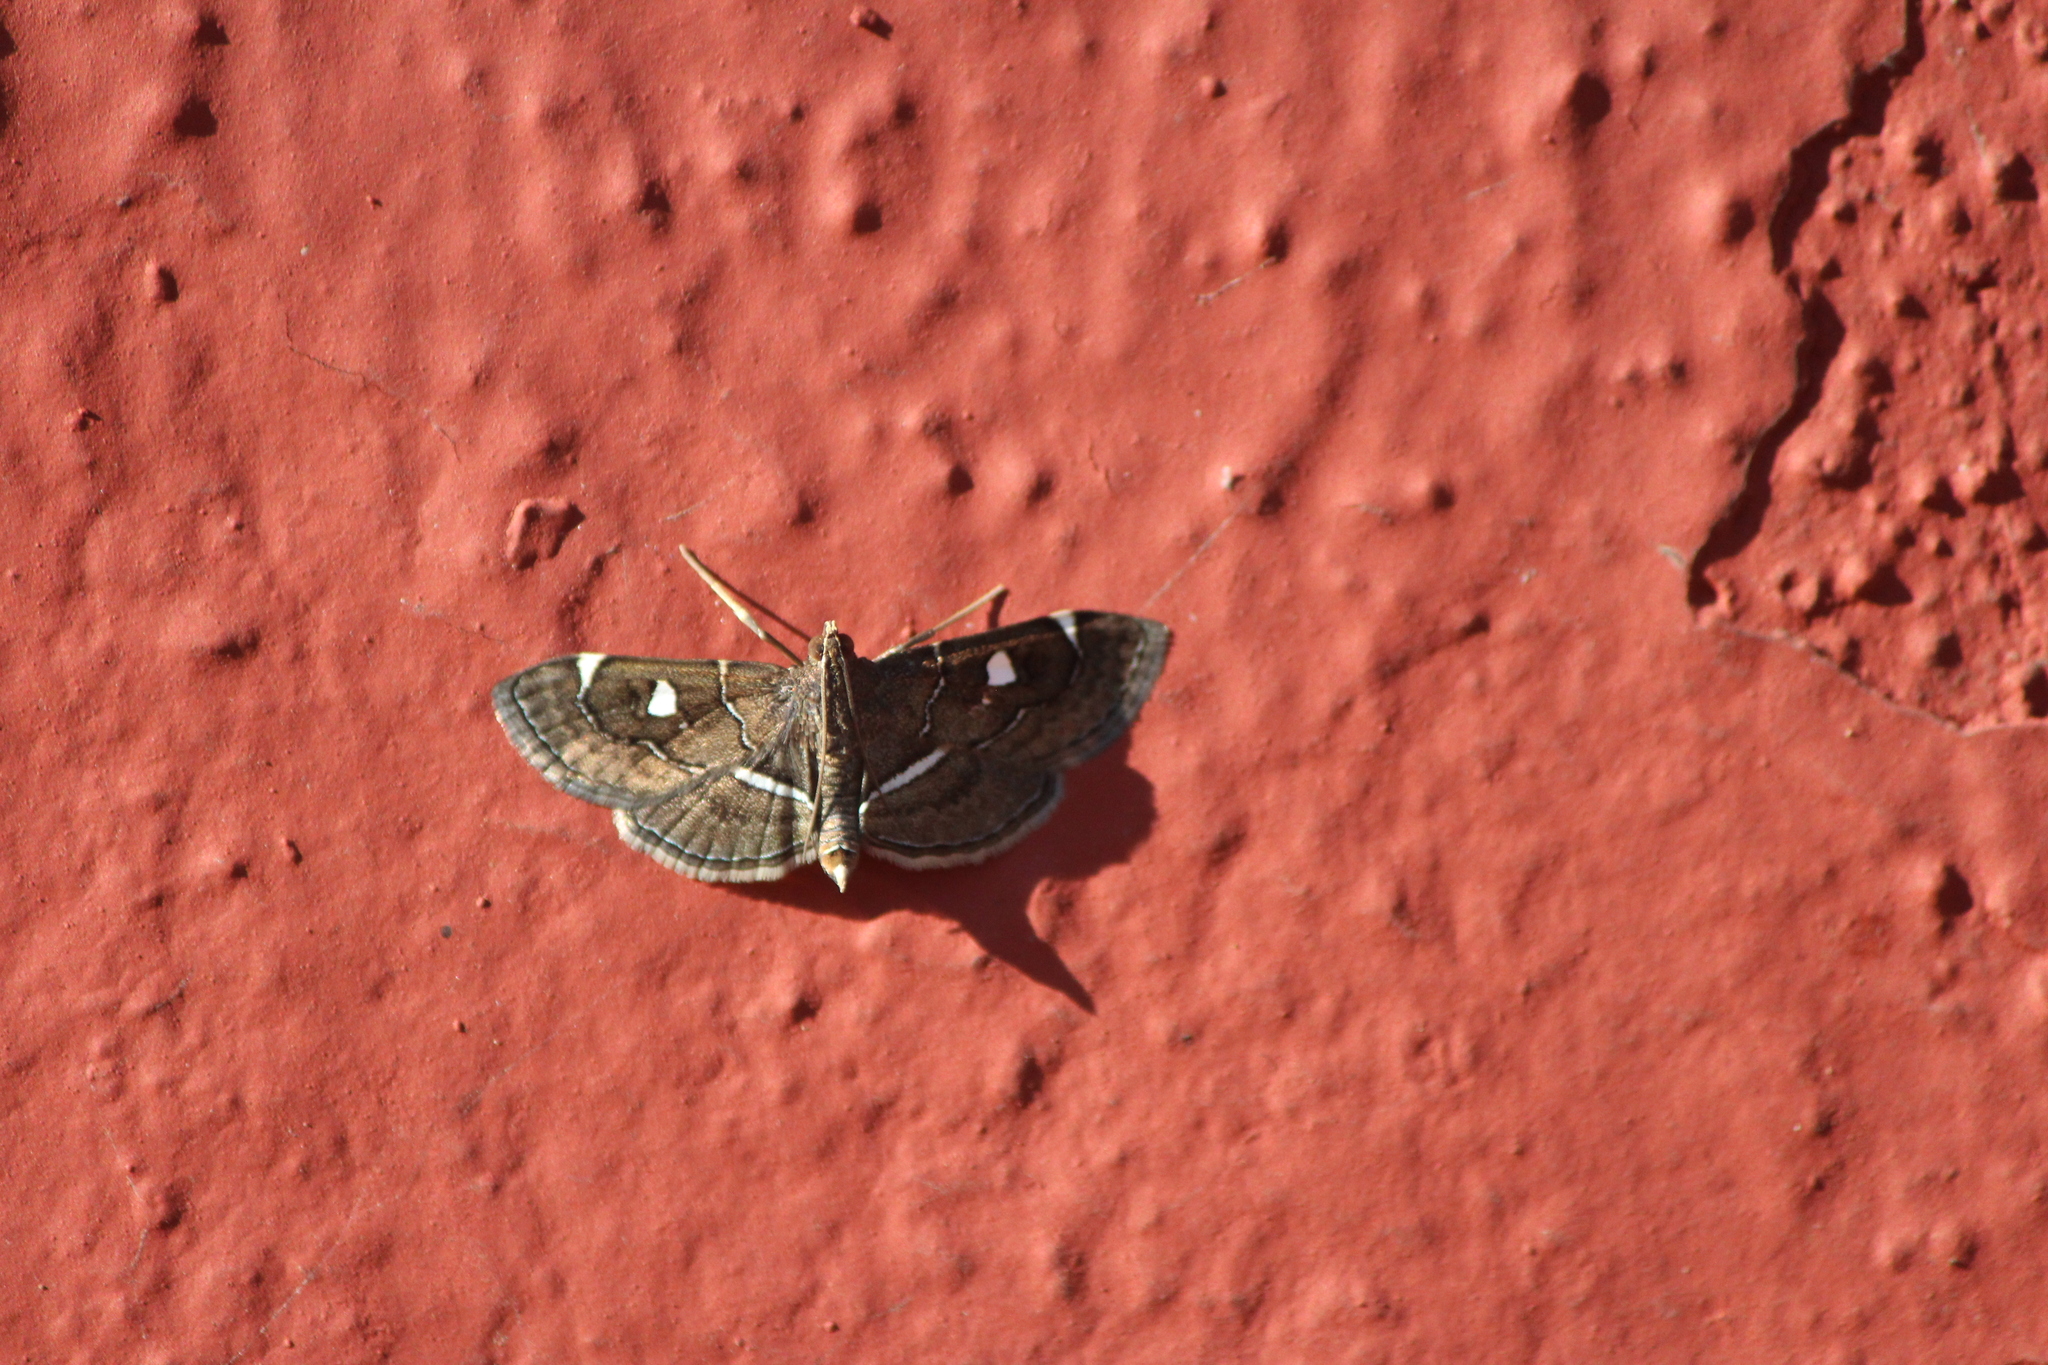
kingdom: Animalia
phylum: Arthropoda
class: Insecta
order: Lepidoptera
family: Crambidae
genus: Lamprosema
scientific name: Lamprosema victoriae
